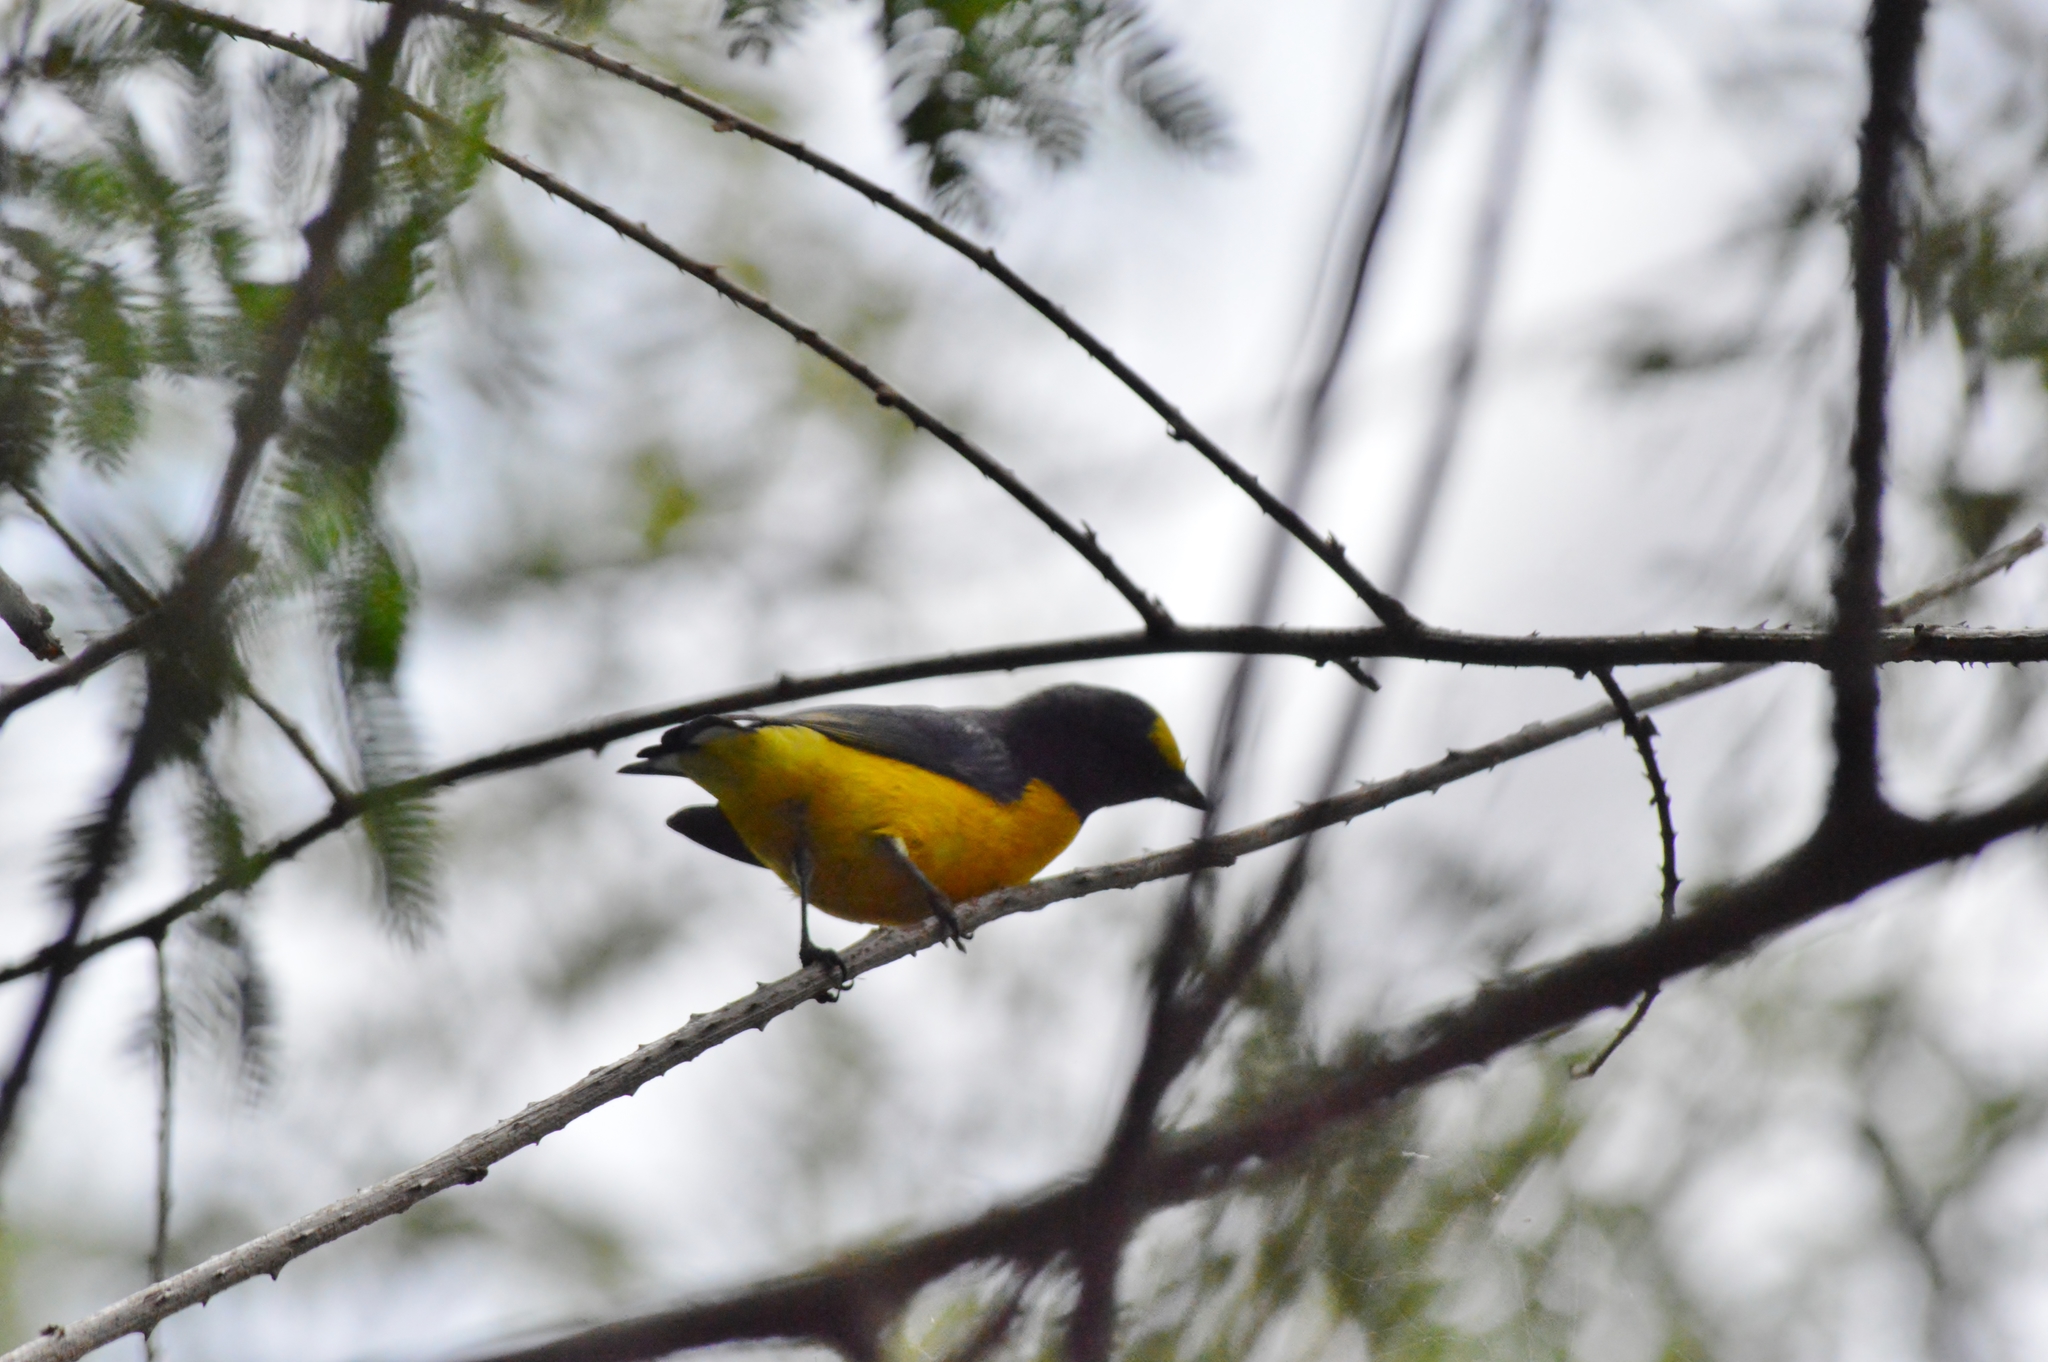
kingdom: Animalia
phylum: Chordata
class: Aves
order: Passeriformes
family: Fringillidae
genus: Euphonia
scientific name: Euphonia chlorotica
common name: Purple-throated euphonia
